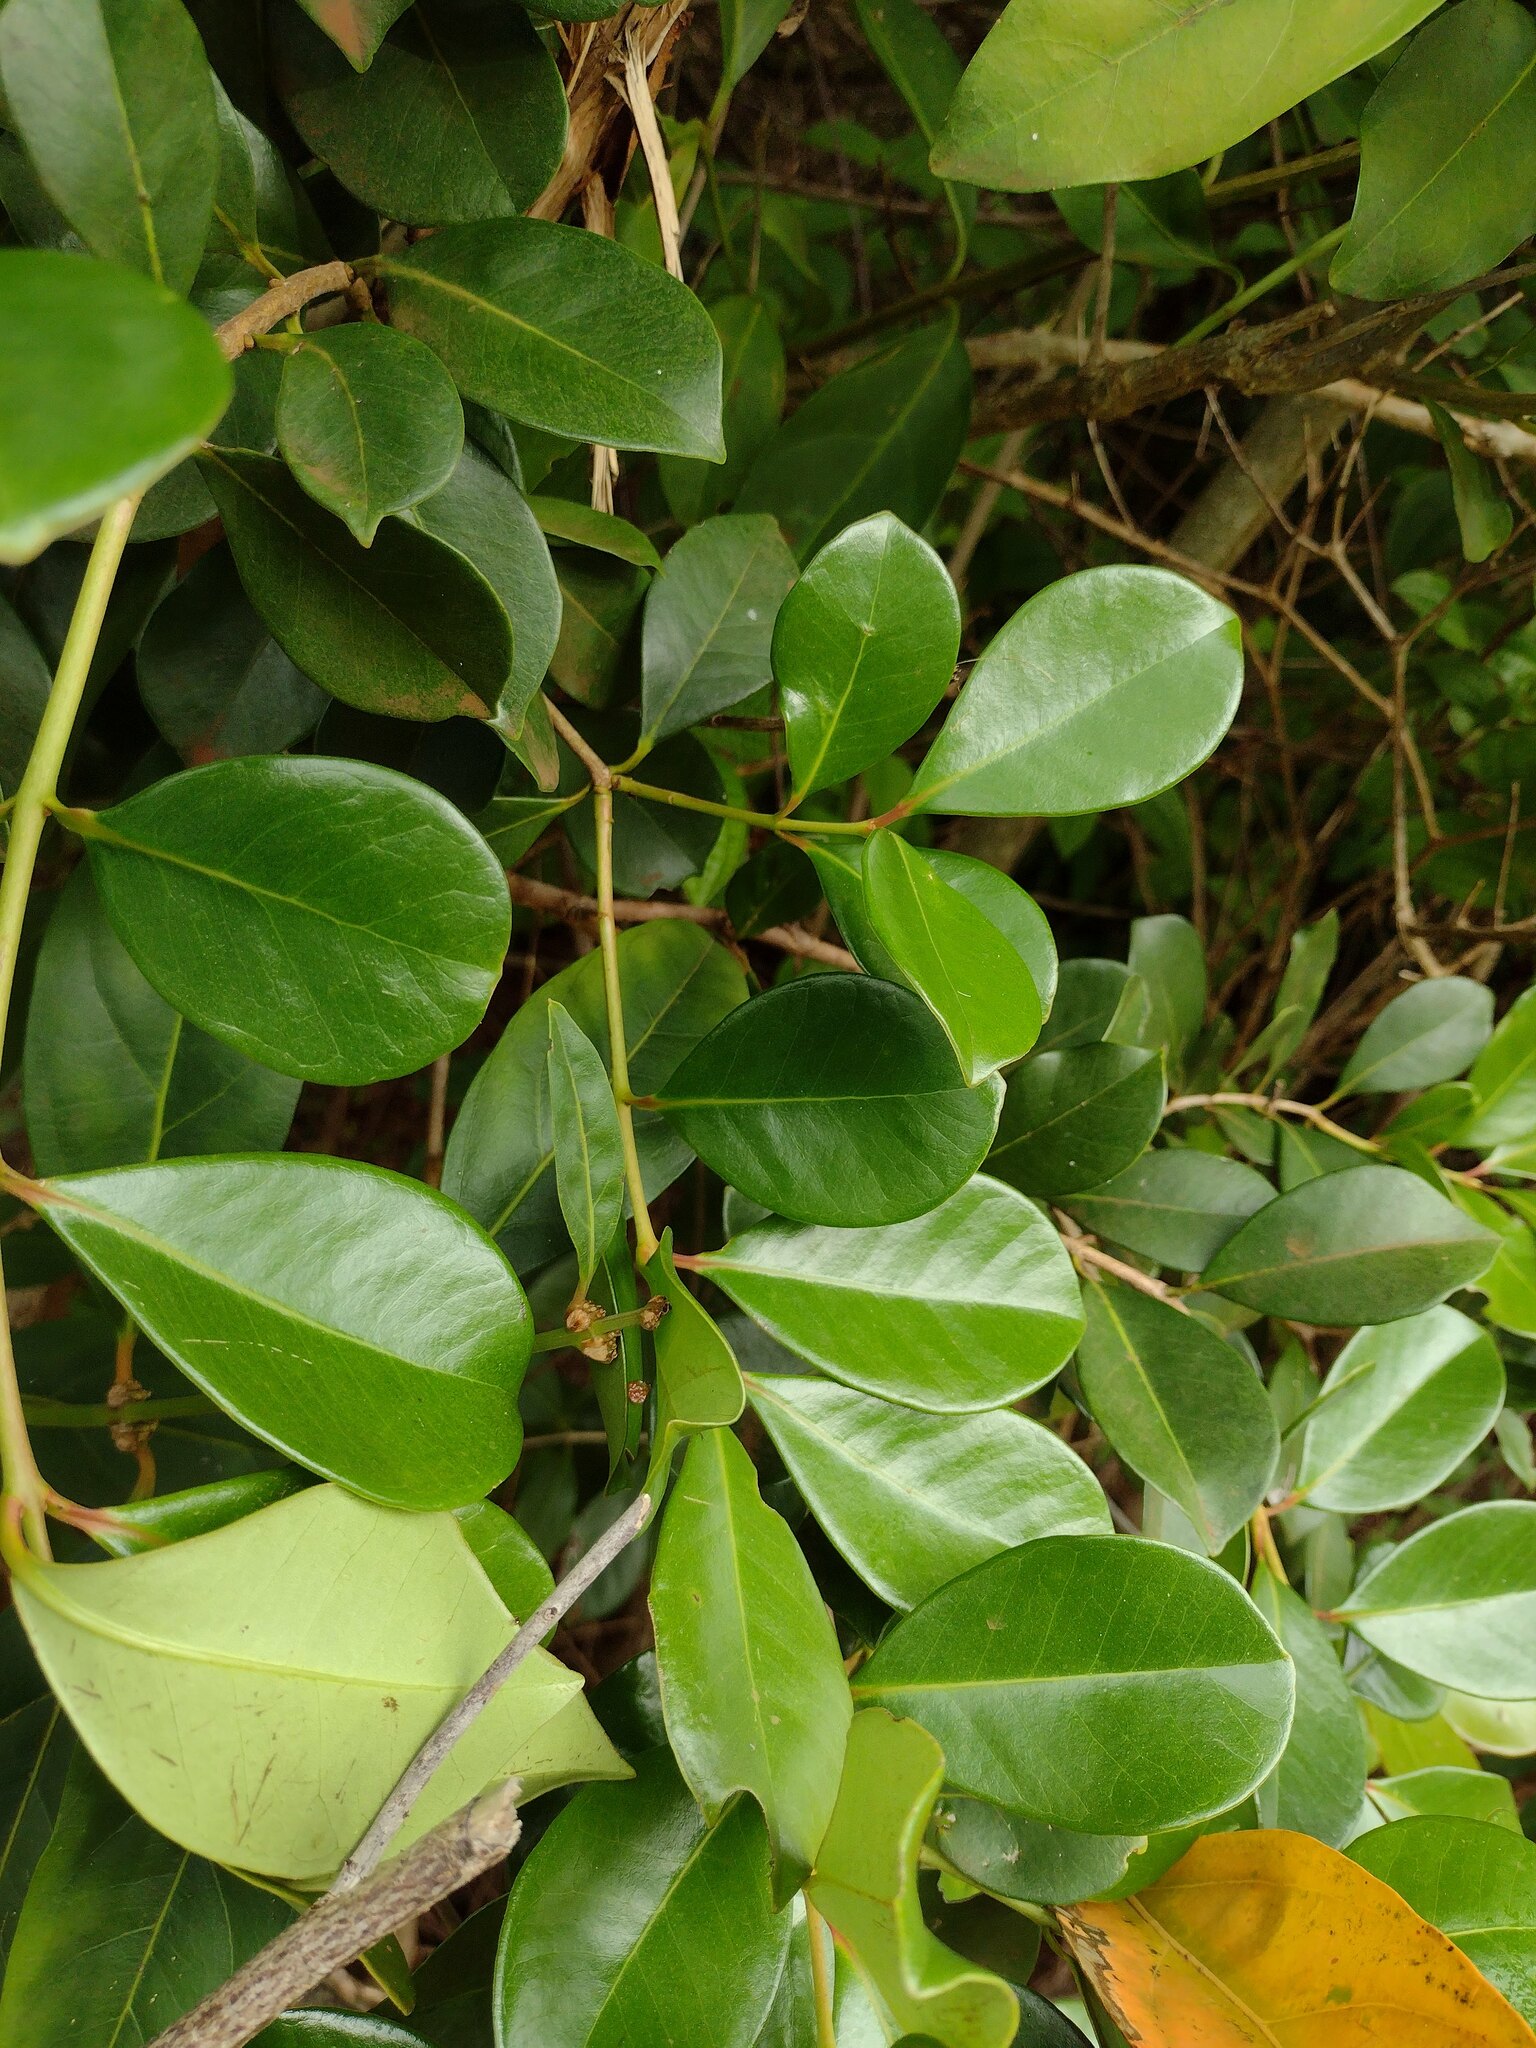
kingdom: Plantae
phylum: Tracheophyta
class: Magnoliopsida
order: Myrtales
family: Myrtaceae
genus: Psidium
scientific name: Psidium cattleianum
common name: Strawberry guava
